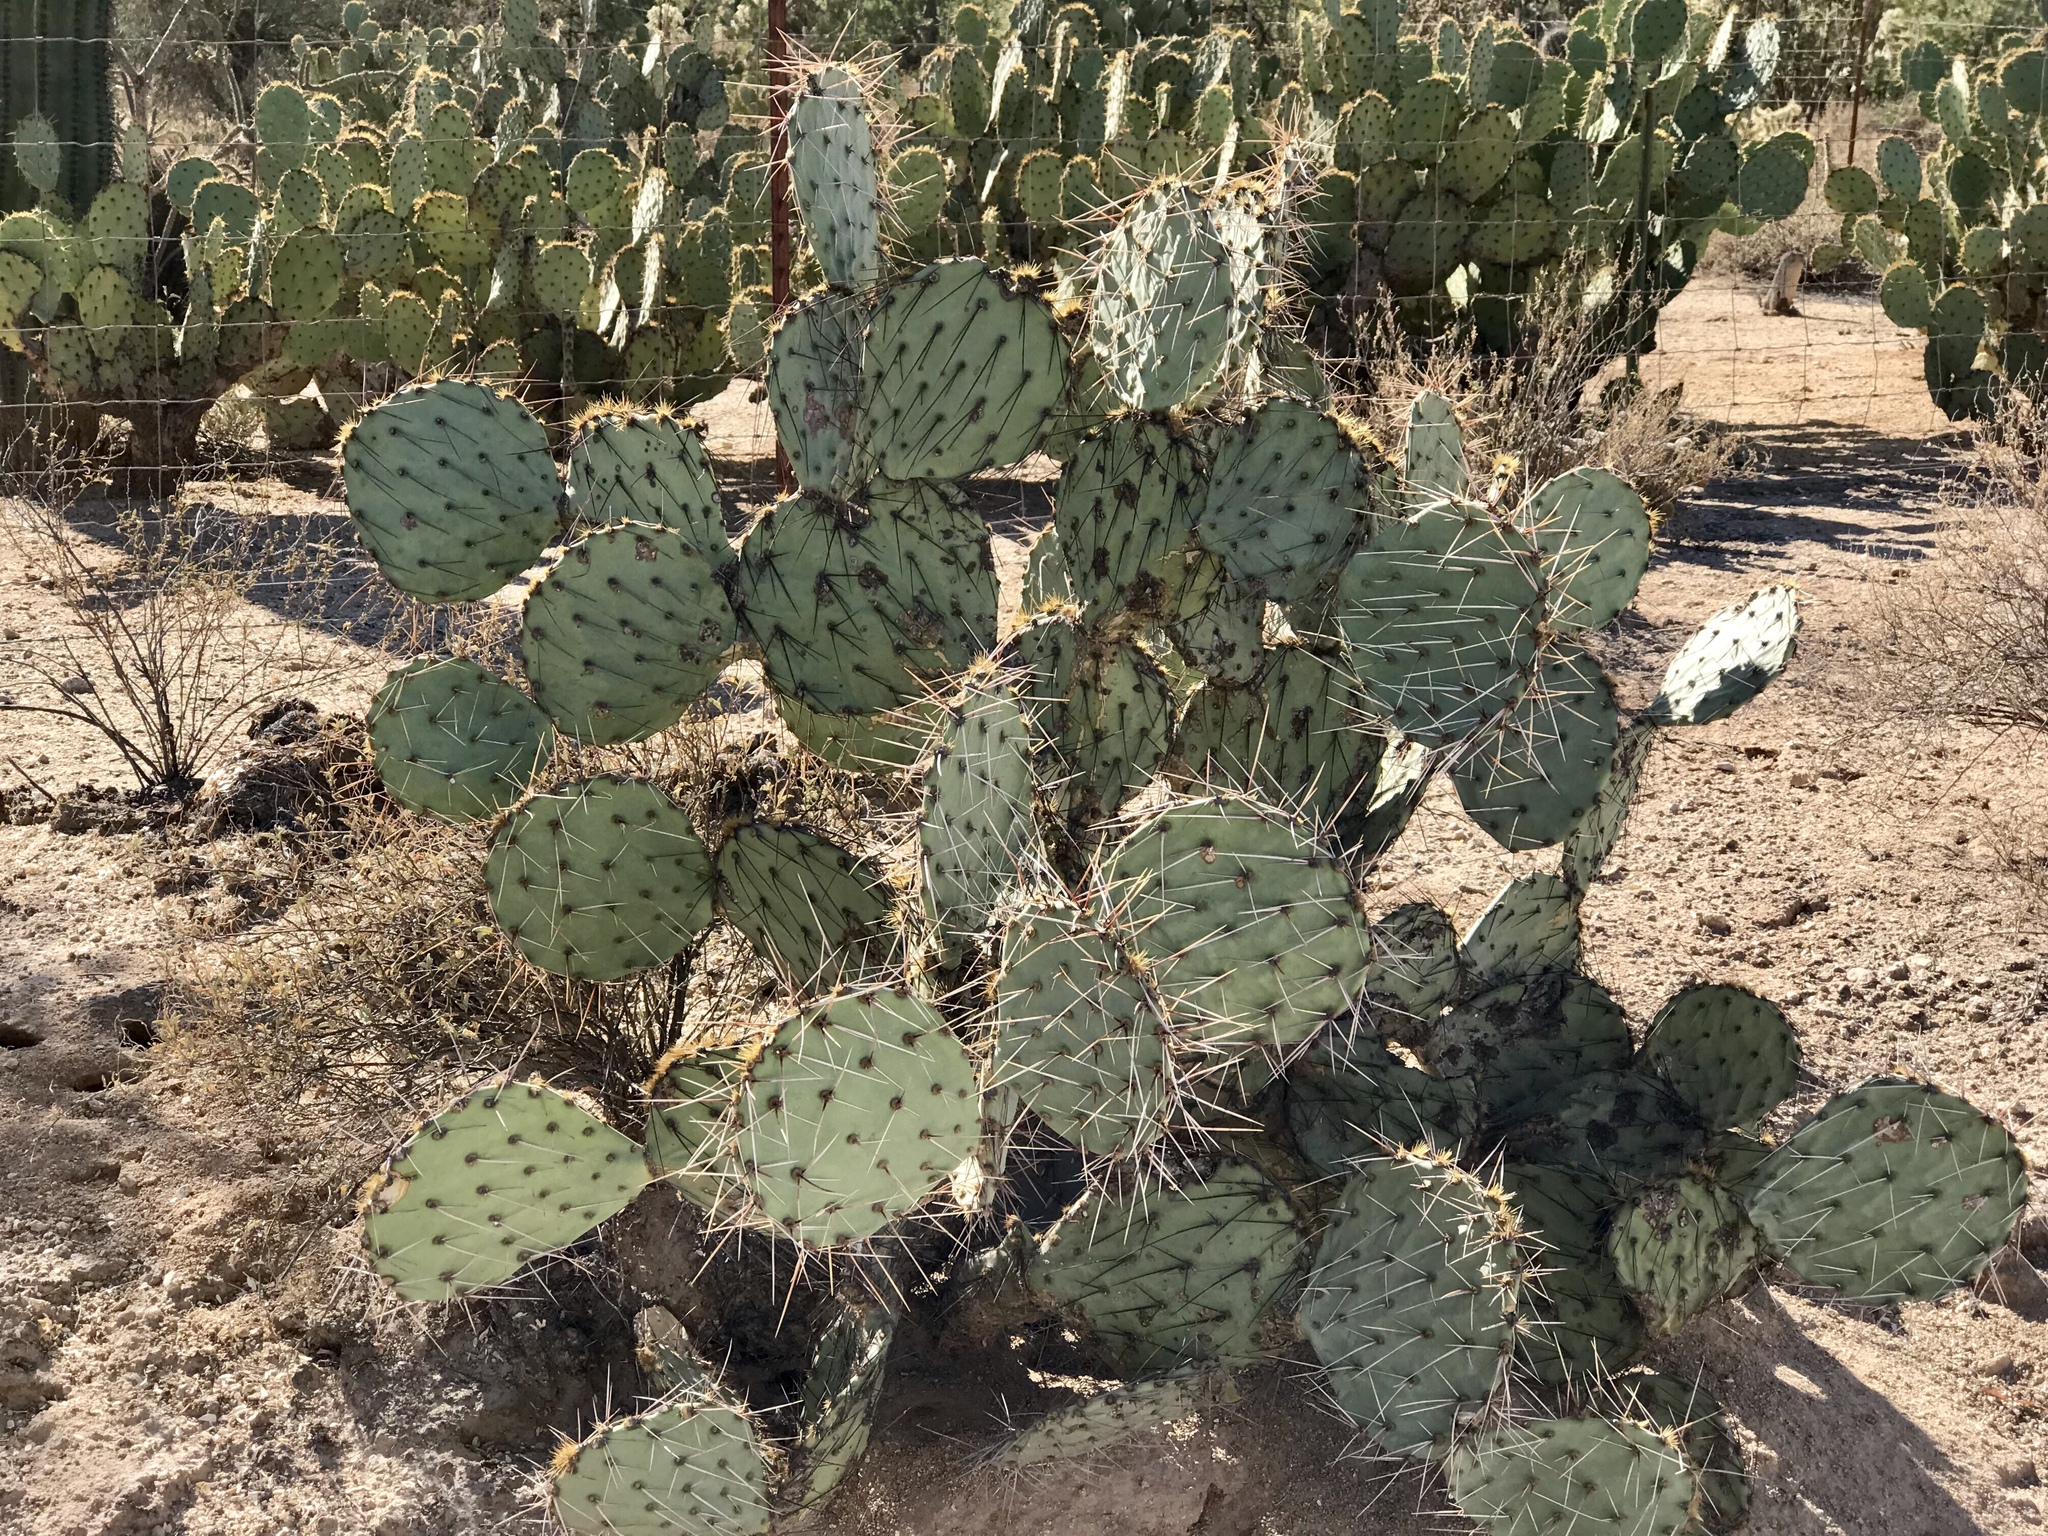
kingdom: Plantae
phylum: Tracheophyta
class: Magnoliopsida
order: Caryophyllales
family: Cactaceae
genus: Opuntia
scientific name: Opuntia engelmannii
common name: Cactus-apple
